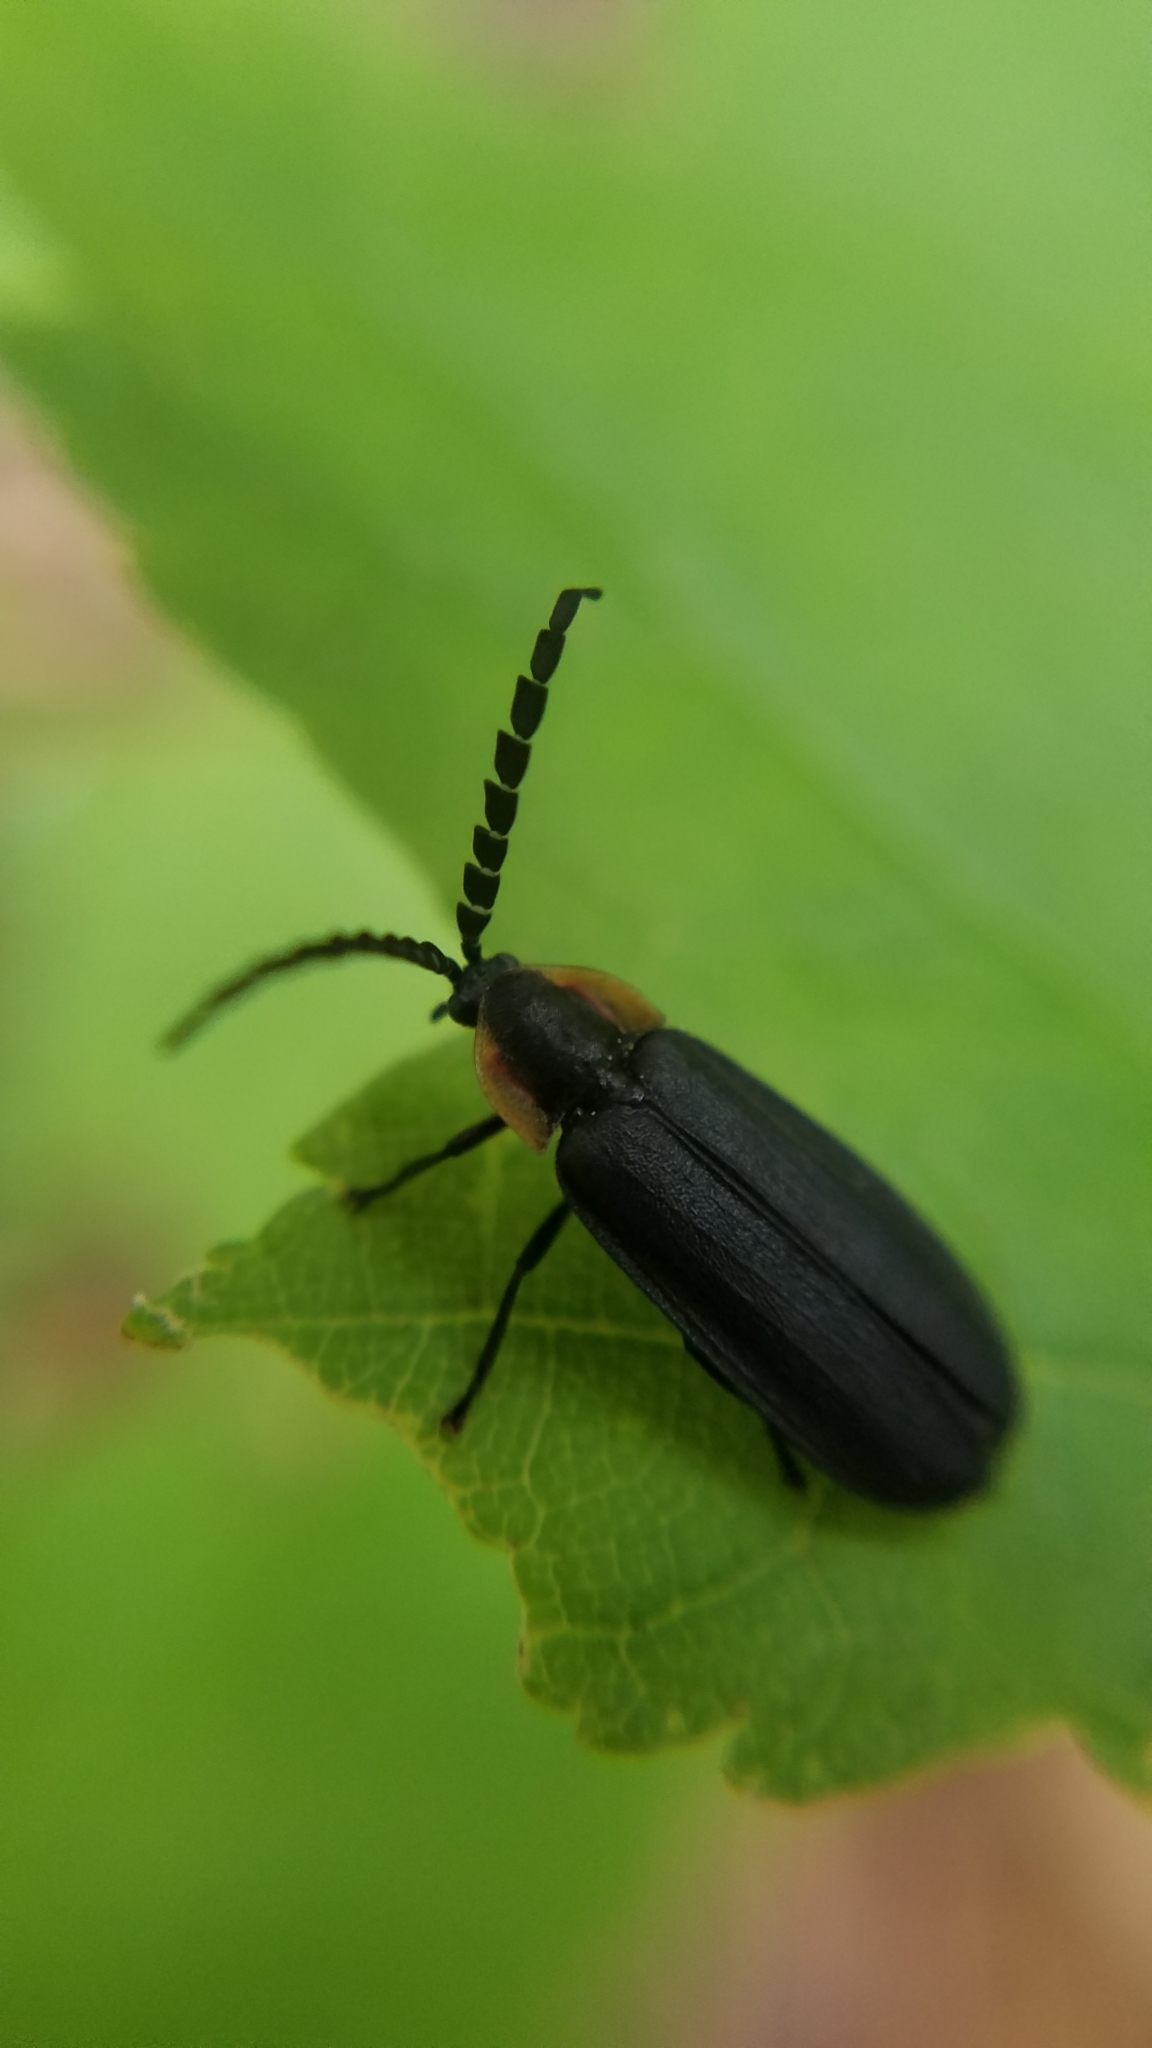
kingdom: Animalia
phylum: Arthropoda
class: Insecta
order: Coleoptera
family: Lampyridae
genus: Lucidota
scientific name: Lucidota atra
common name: Black firefly
